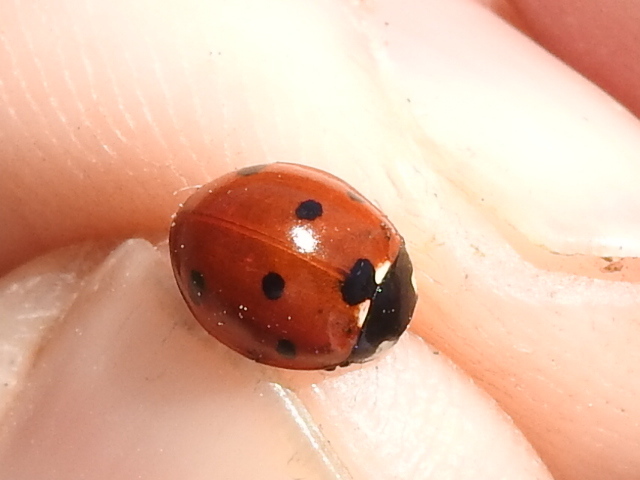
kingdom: Animalia
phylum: Arthropoda
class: Insecta
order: Coleoptera
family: Coccinellidae
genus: Coccinella
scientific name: Coccinella septempunctata
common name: Sevenspotted lady beetle
